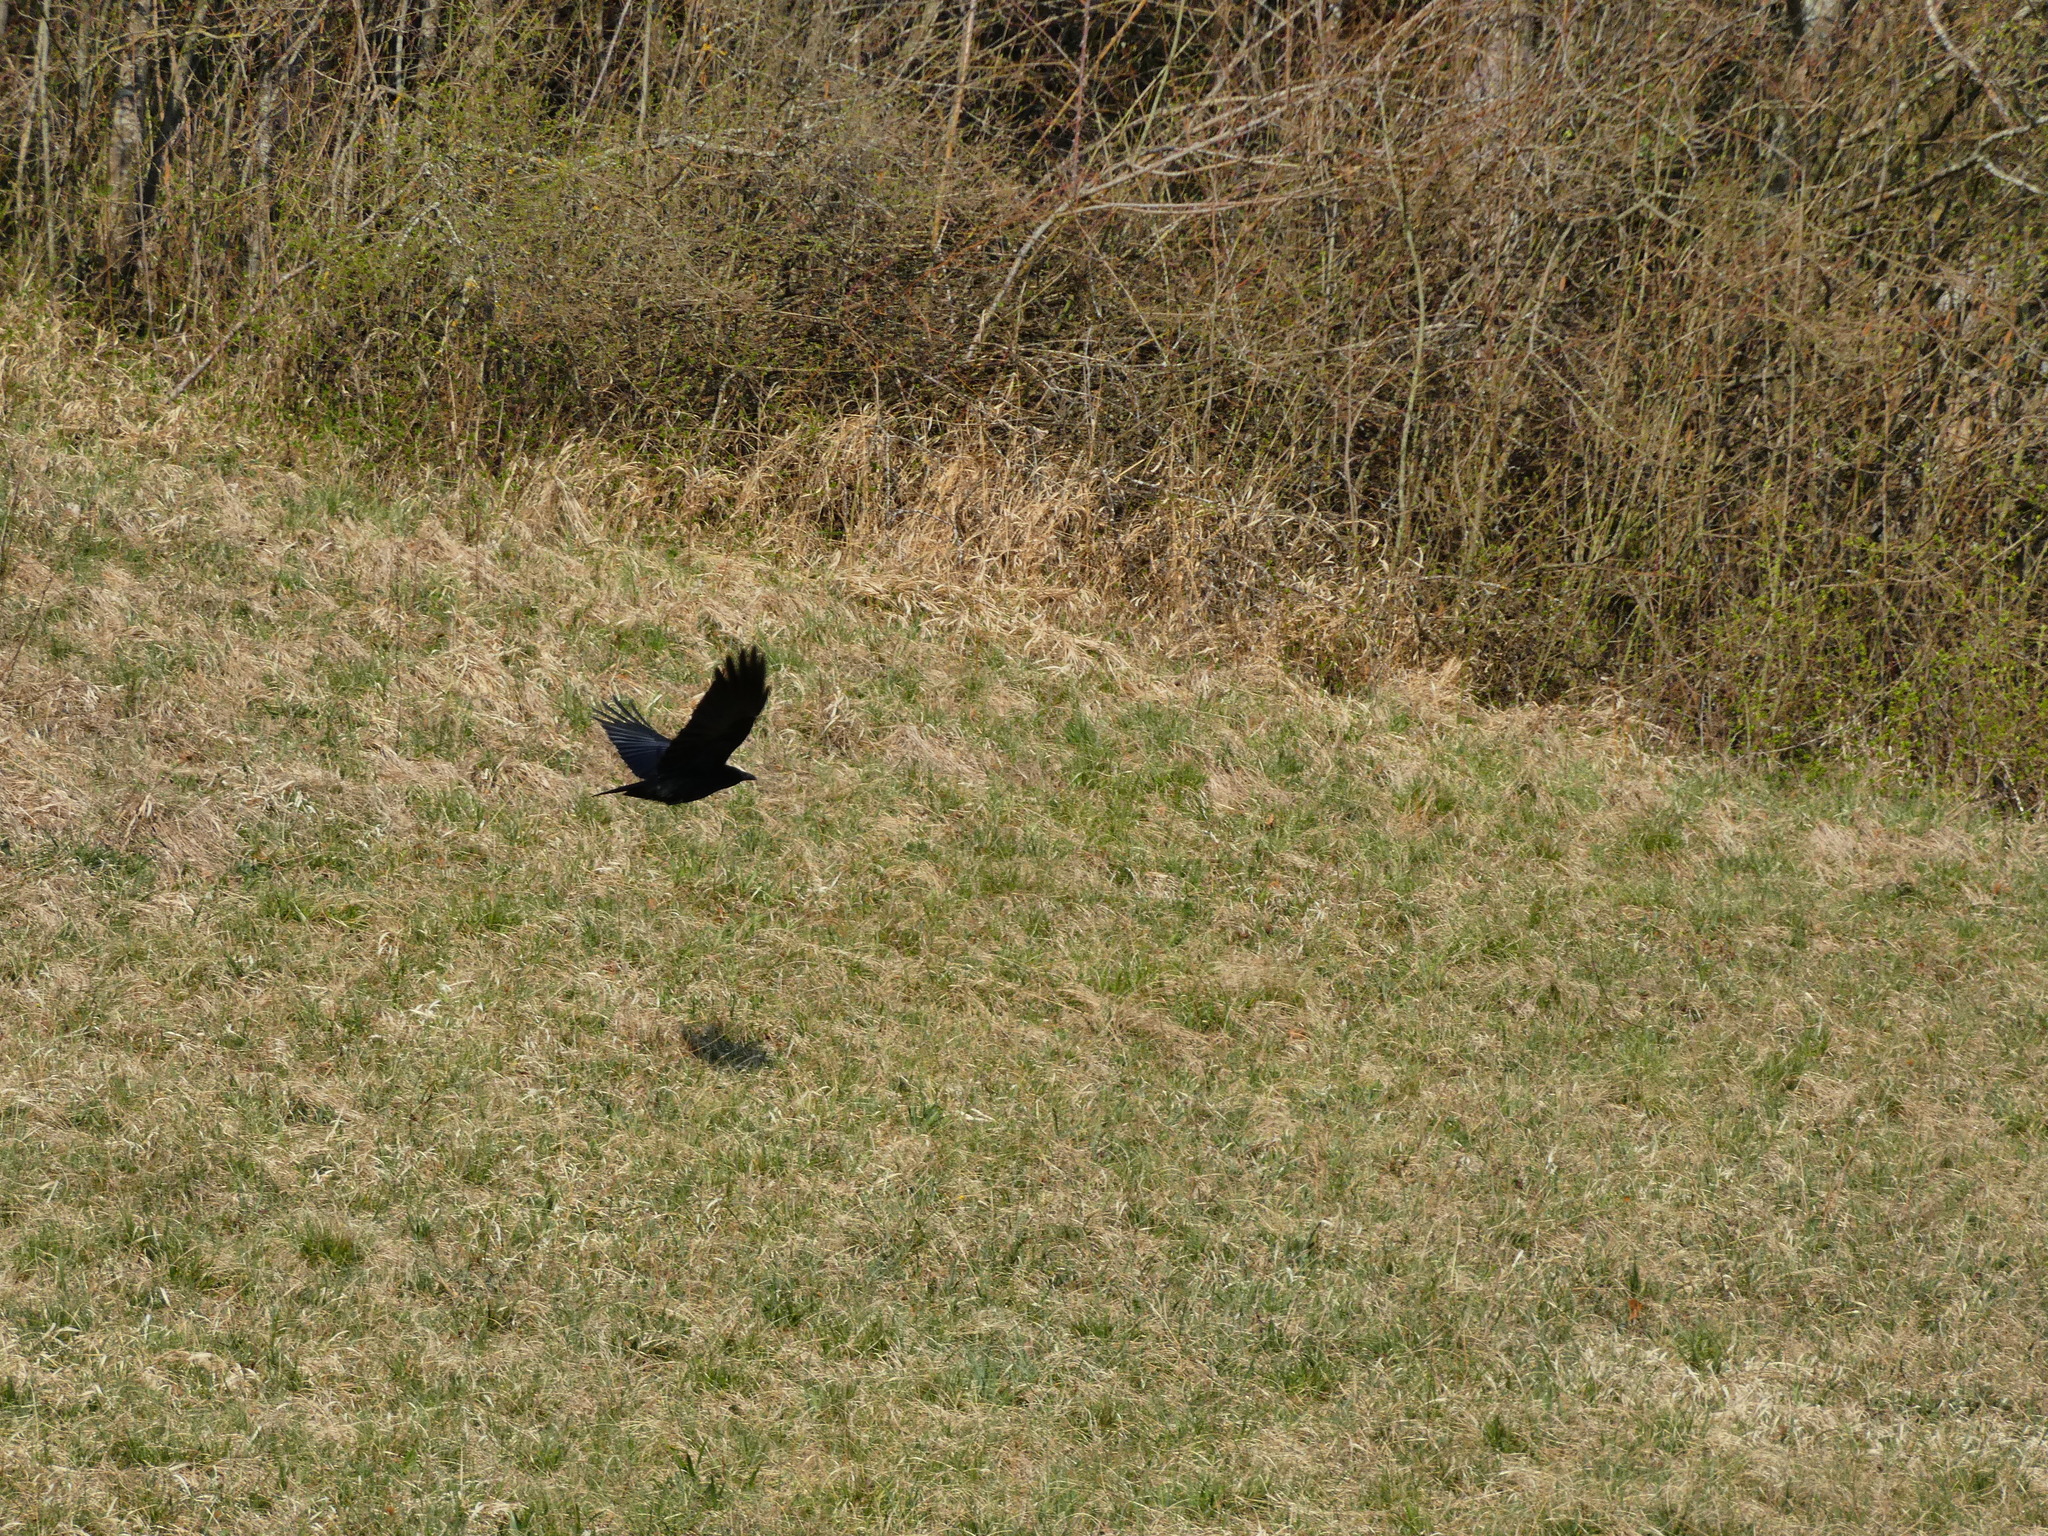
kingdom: Animalia
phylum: Chordata
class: Aves
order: Passeriformes
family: Corvidae
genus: Corvus
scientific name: Corvus corone
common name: Carrion crow
